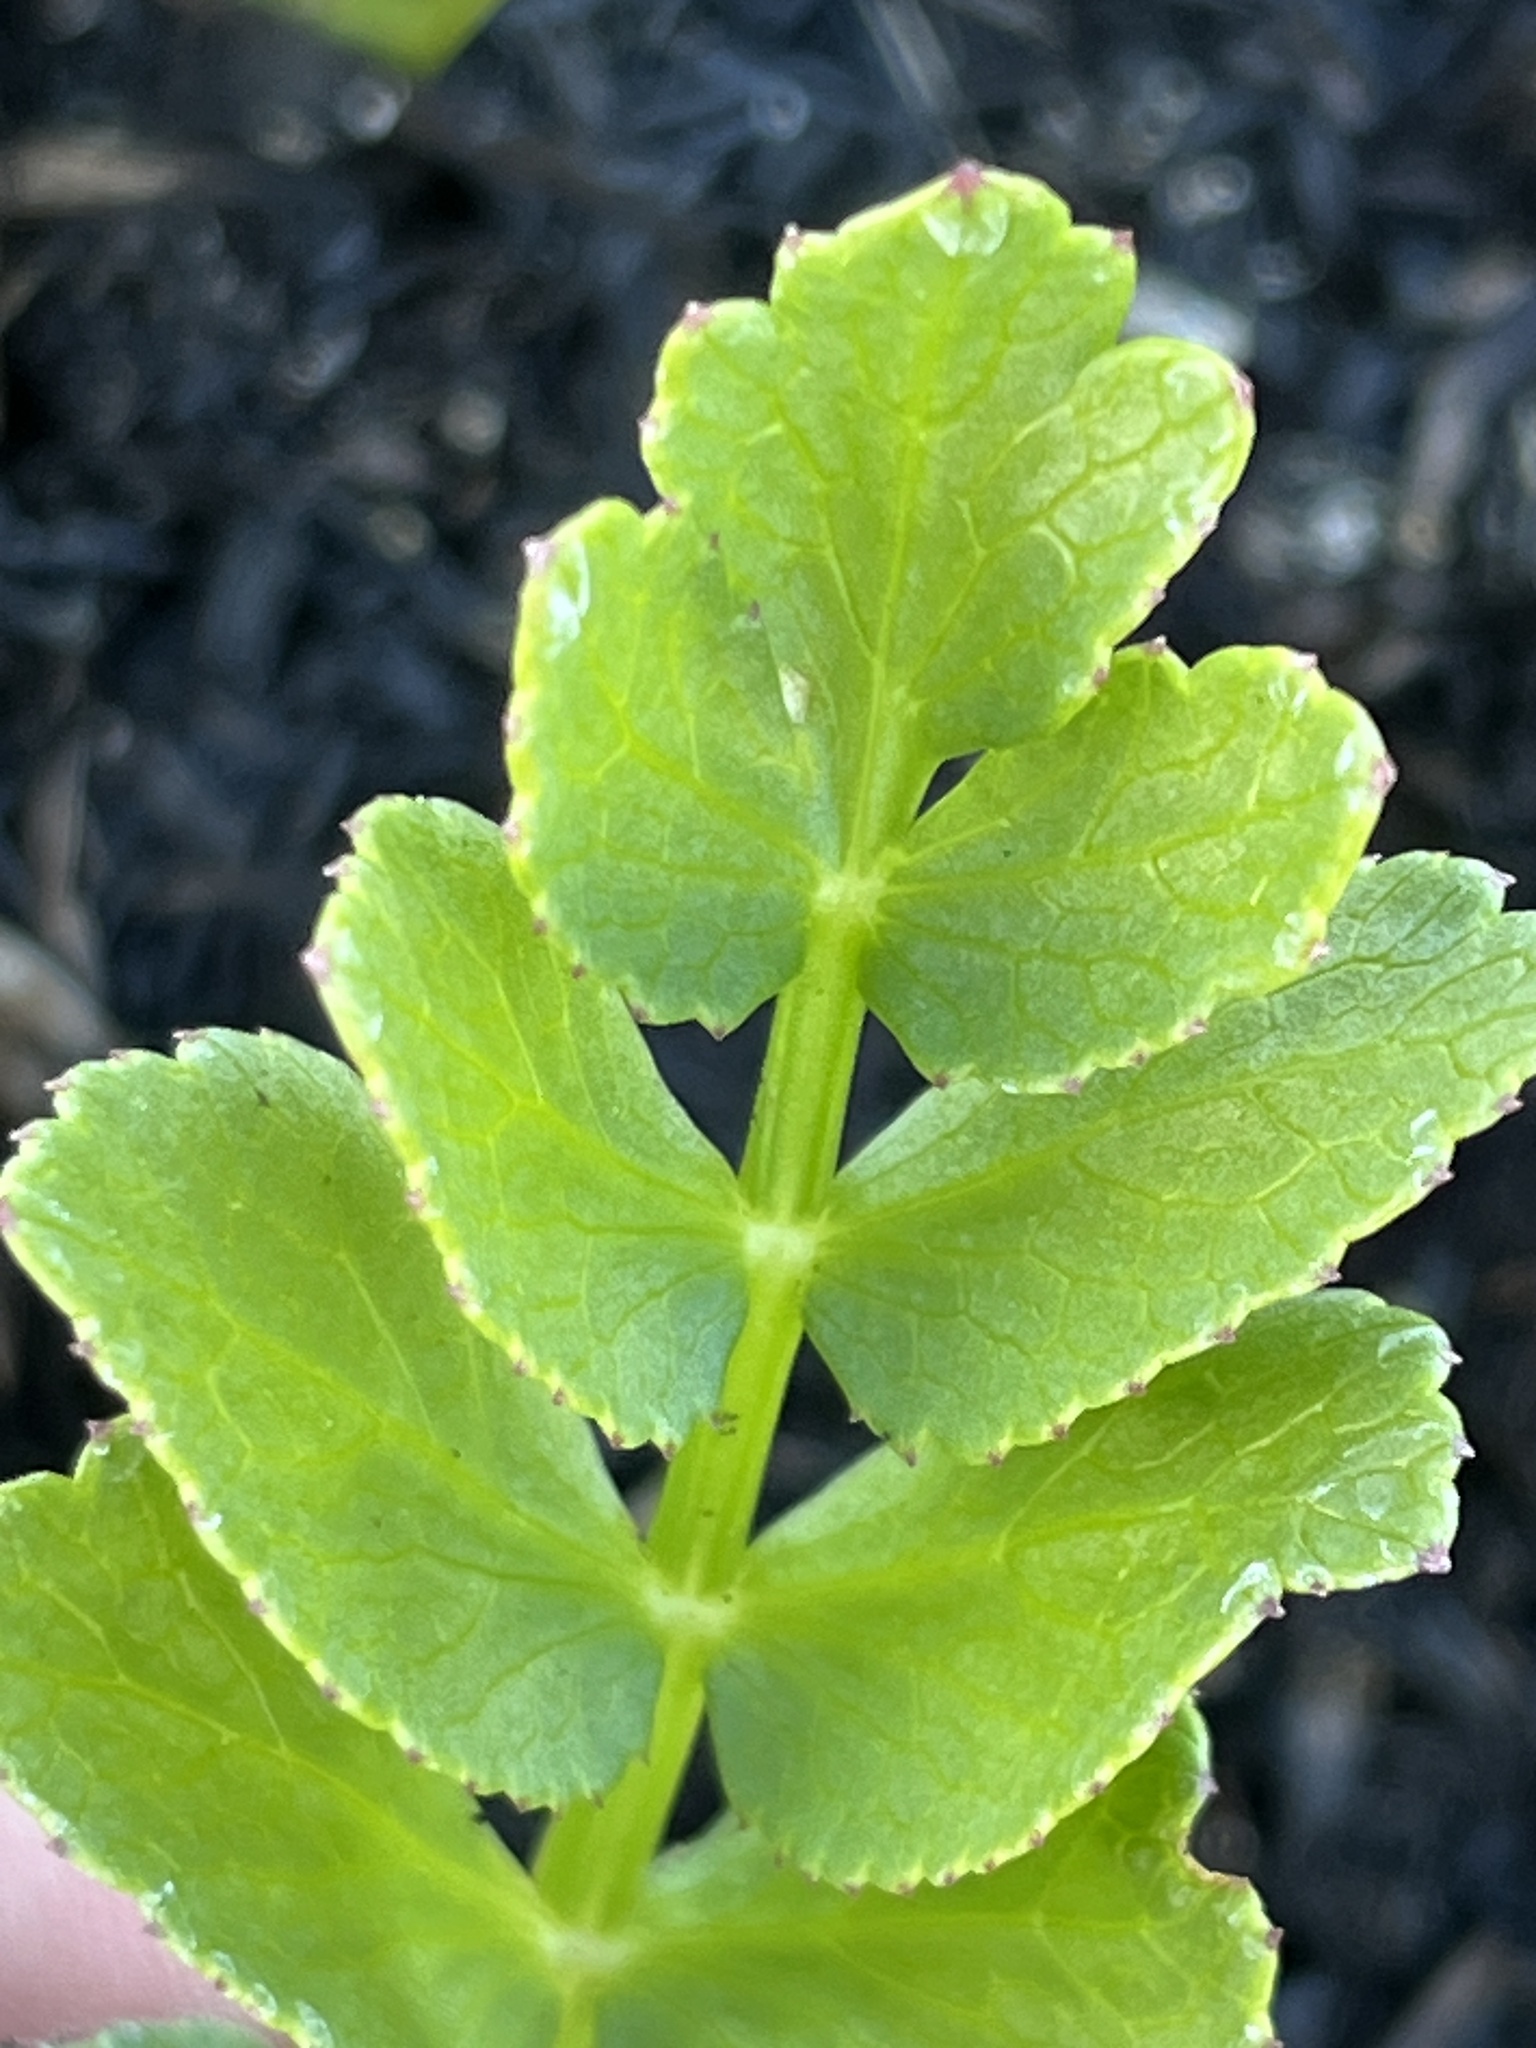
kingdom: Plantae
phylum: Tracheophyta
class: Magnoliopsida
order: Apiales
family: Apiaceae
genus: Berula
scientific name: Berula thunbergii
